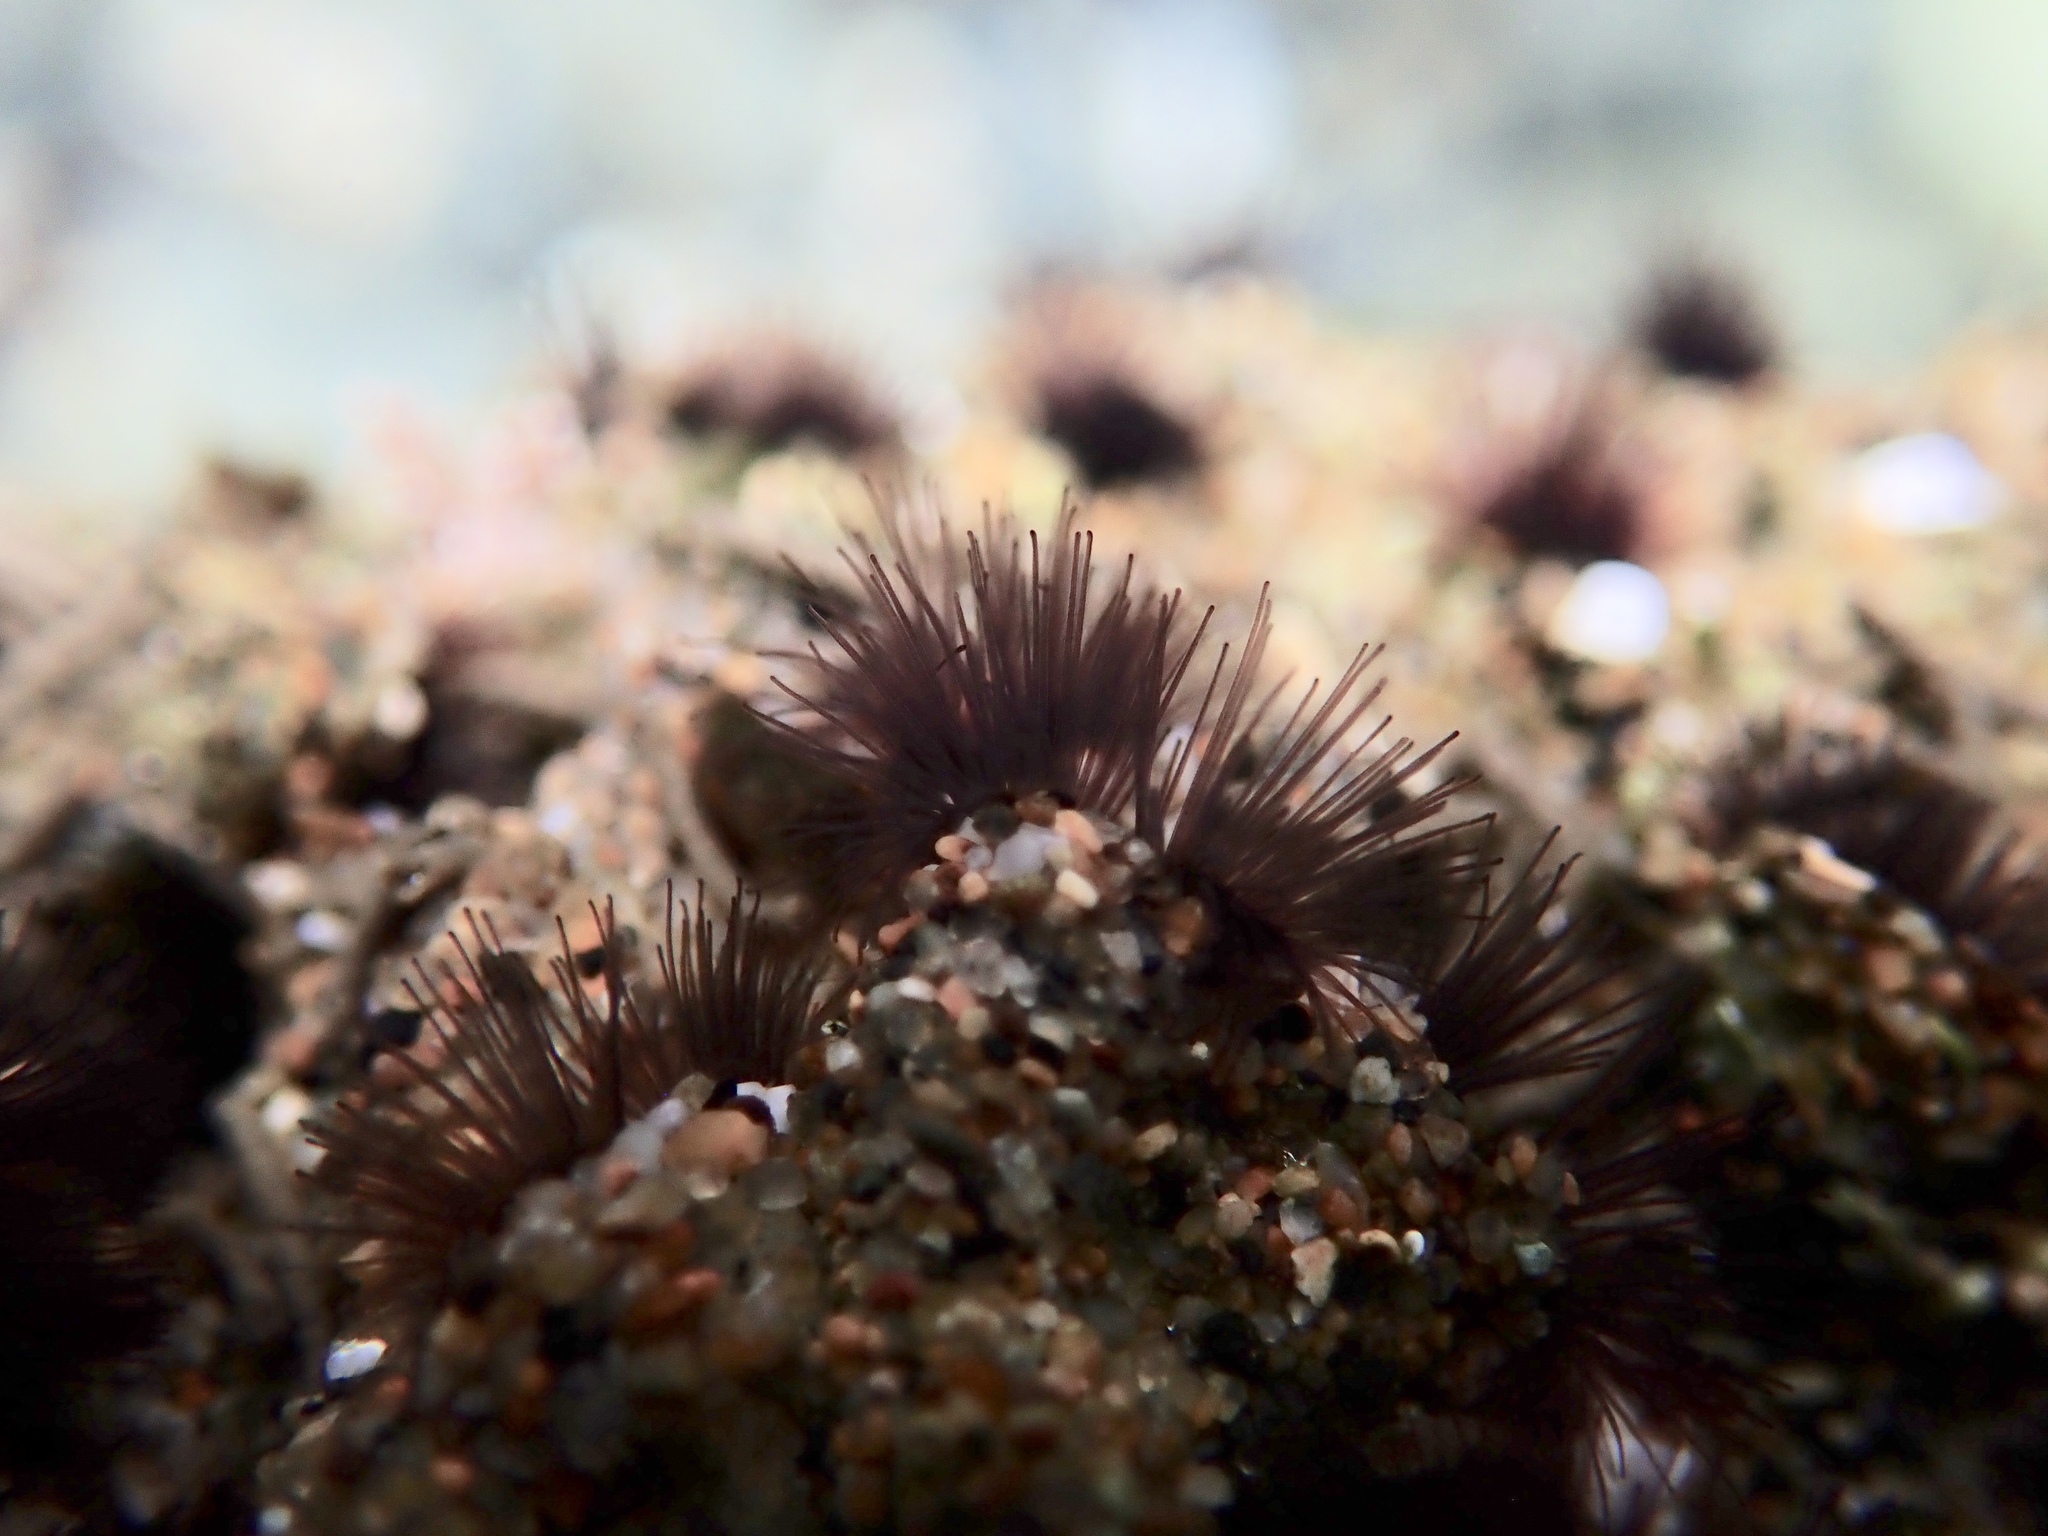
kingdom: Animalia
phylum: Annelida
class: Polychaeta
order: Sabellida
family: Sabellariidae
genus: Phragmatopoma
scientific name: Phragmatopoma californica
